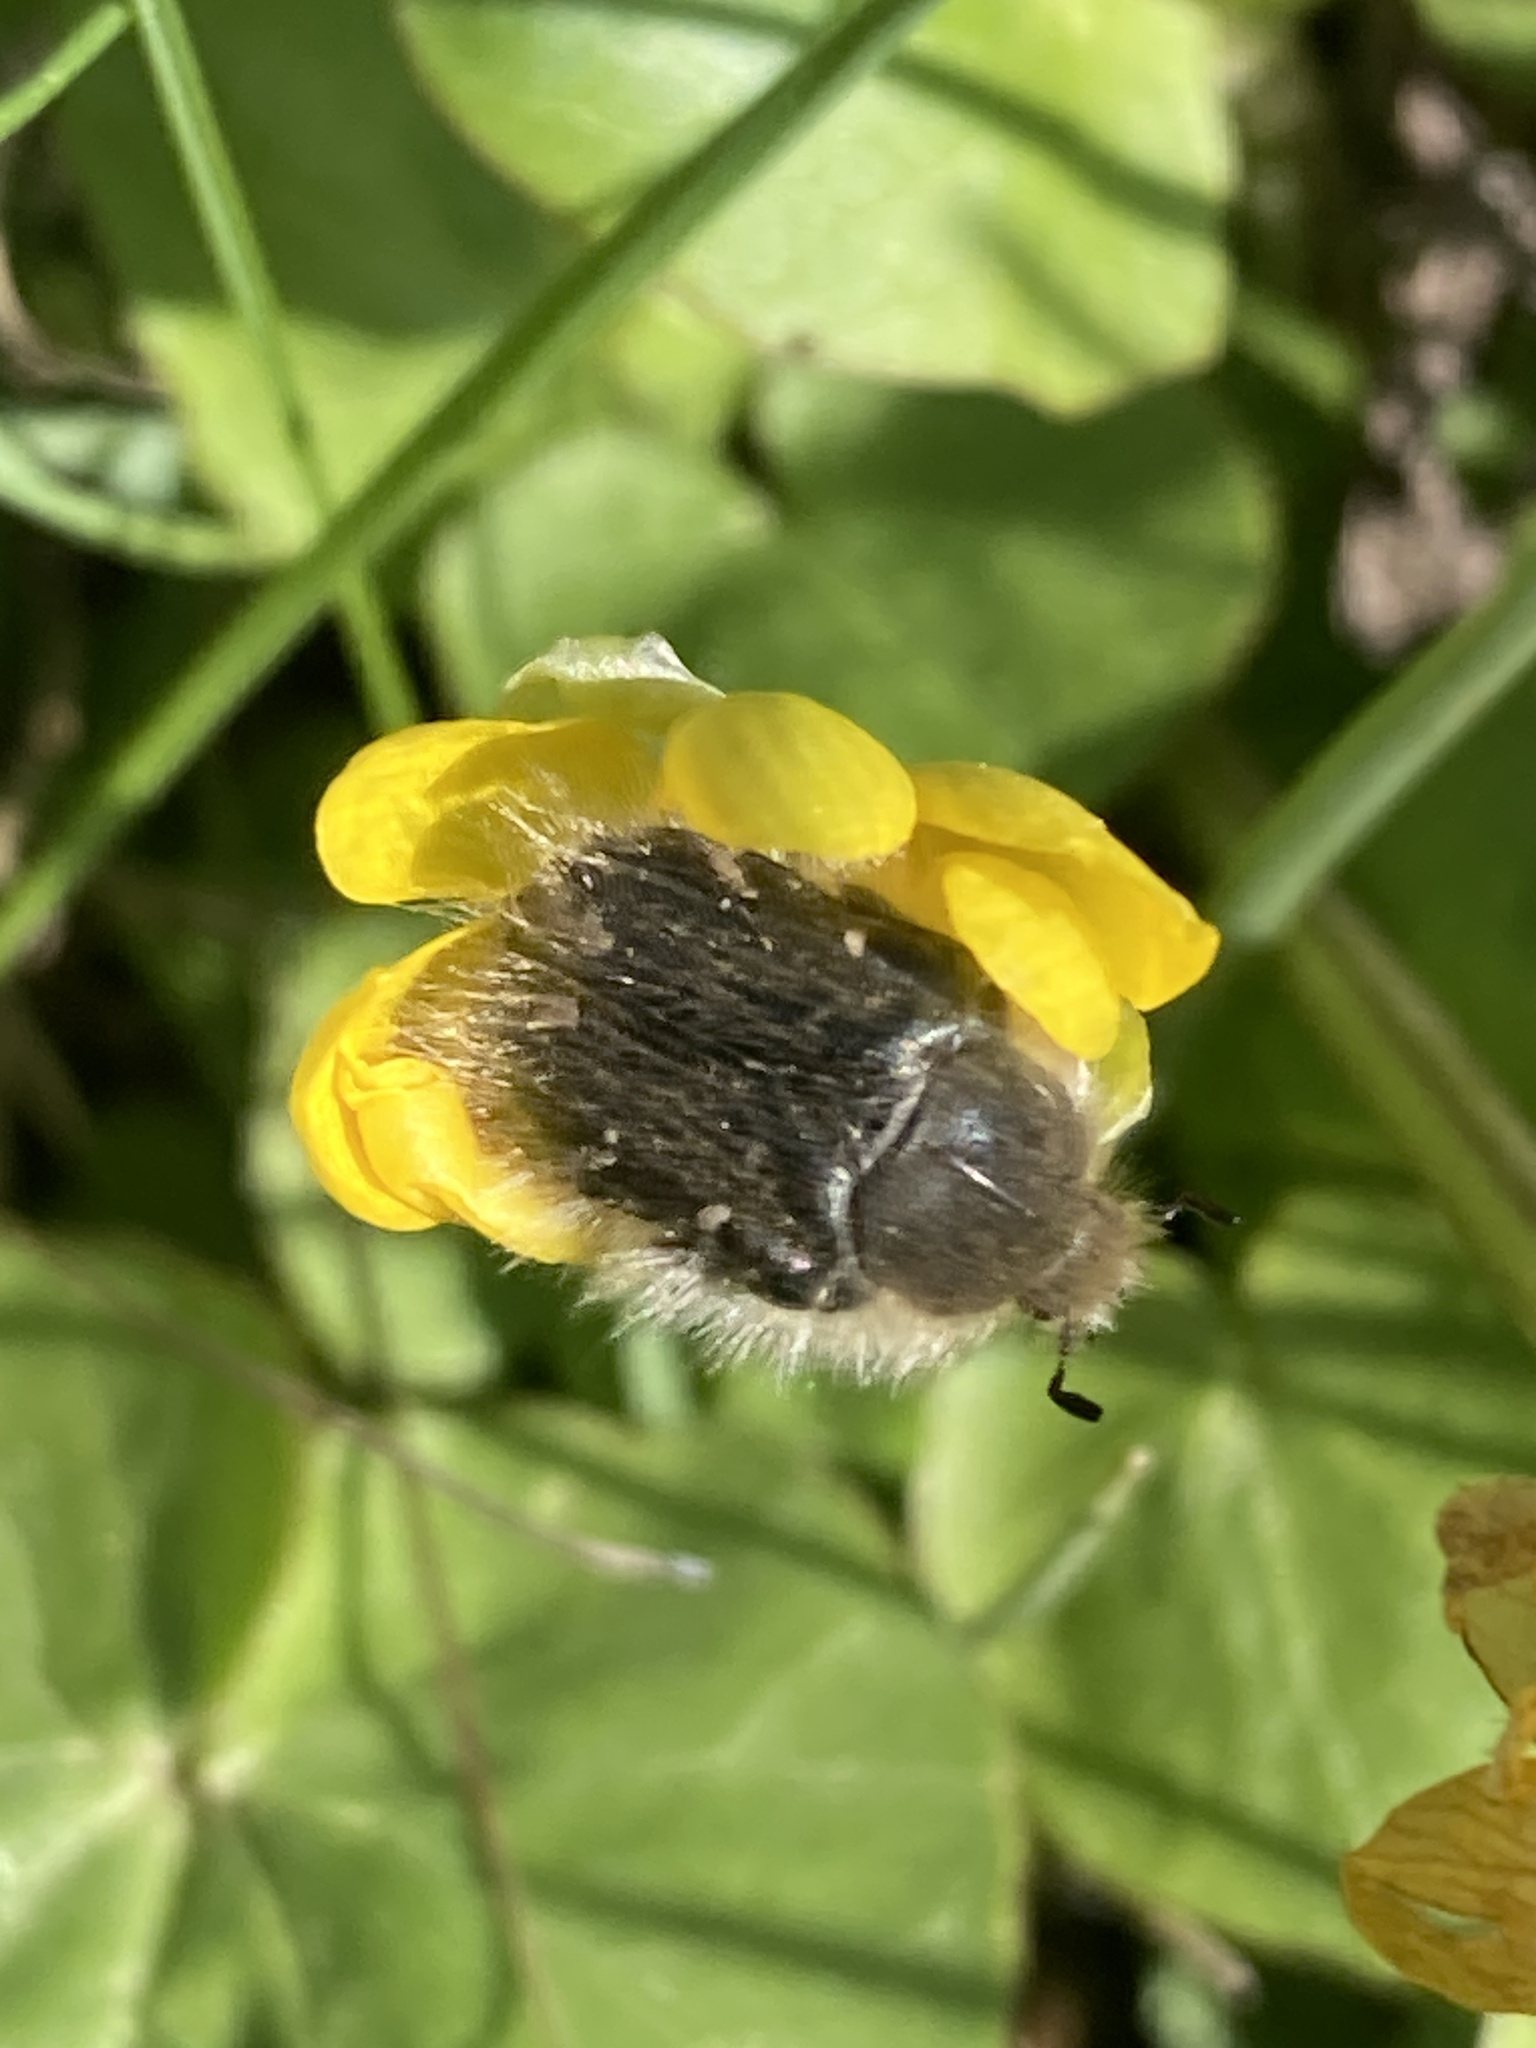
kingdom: Animalia
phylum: Arthropoda
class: Insecta
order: Coleoptera
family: Scarabaeidae
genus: Tropinota
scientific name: Tropinota hirta
